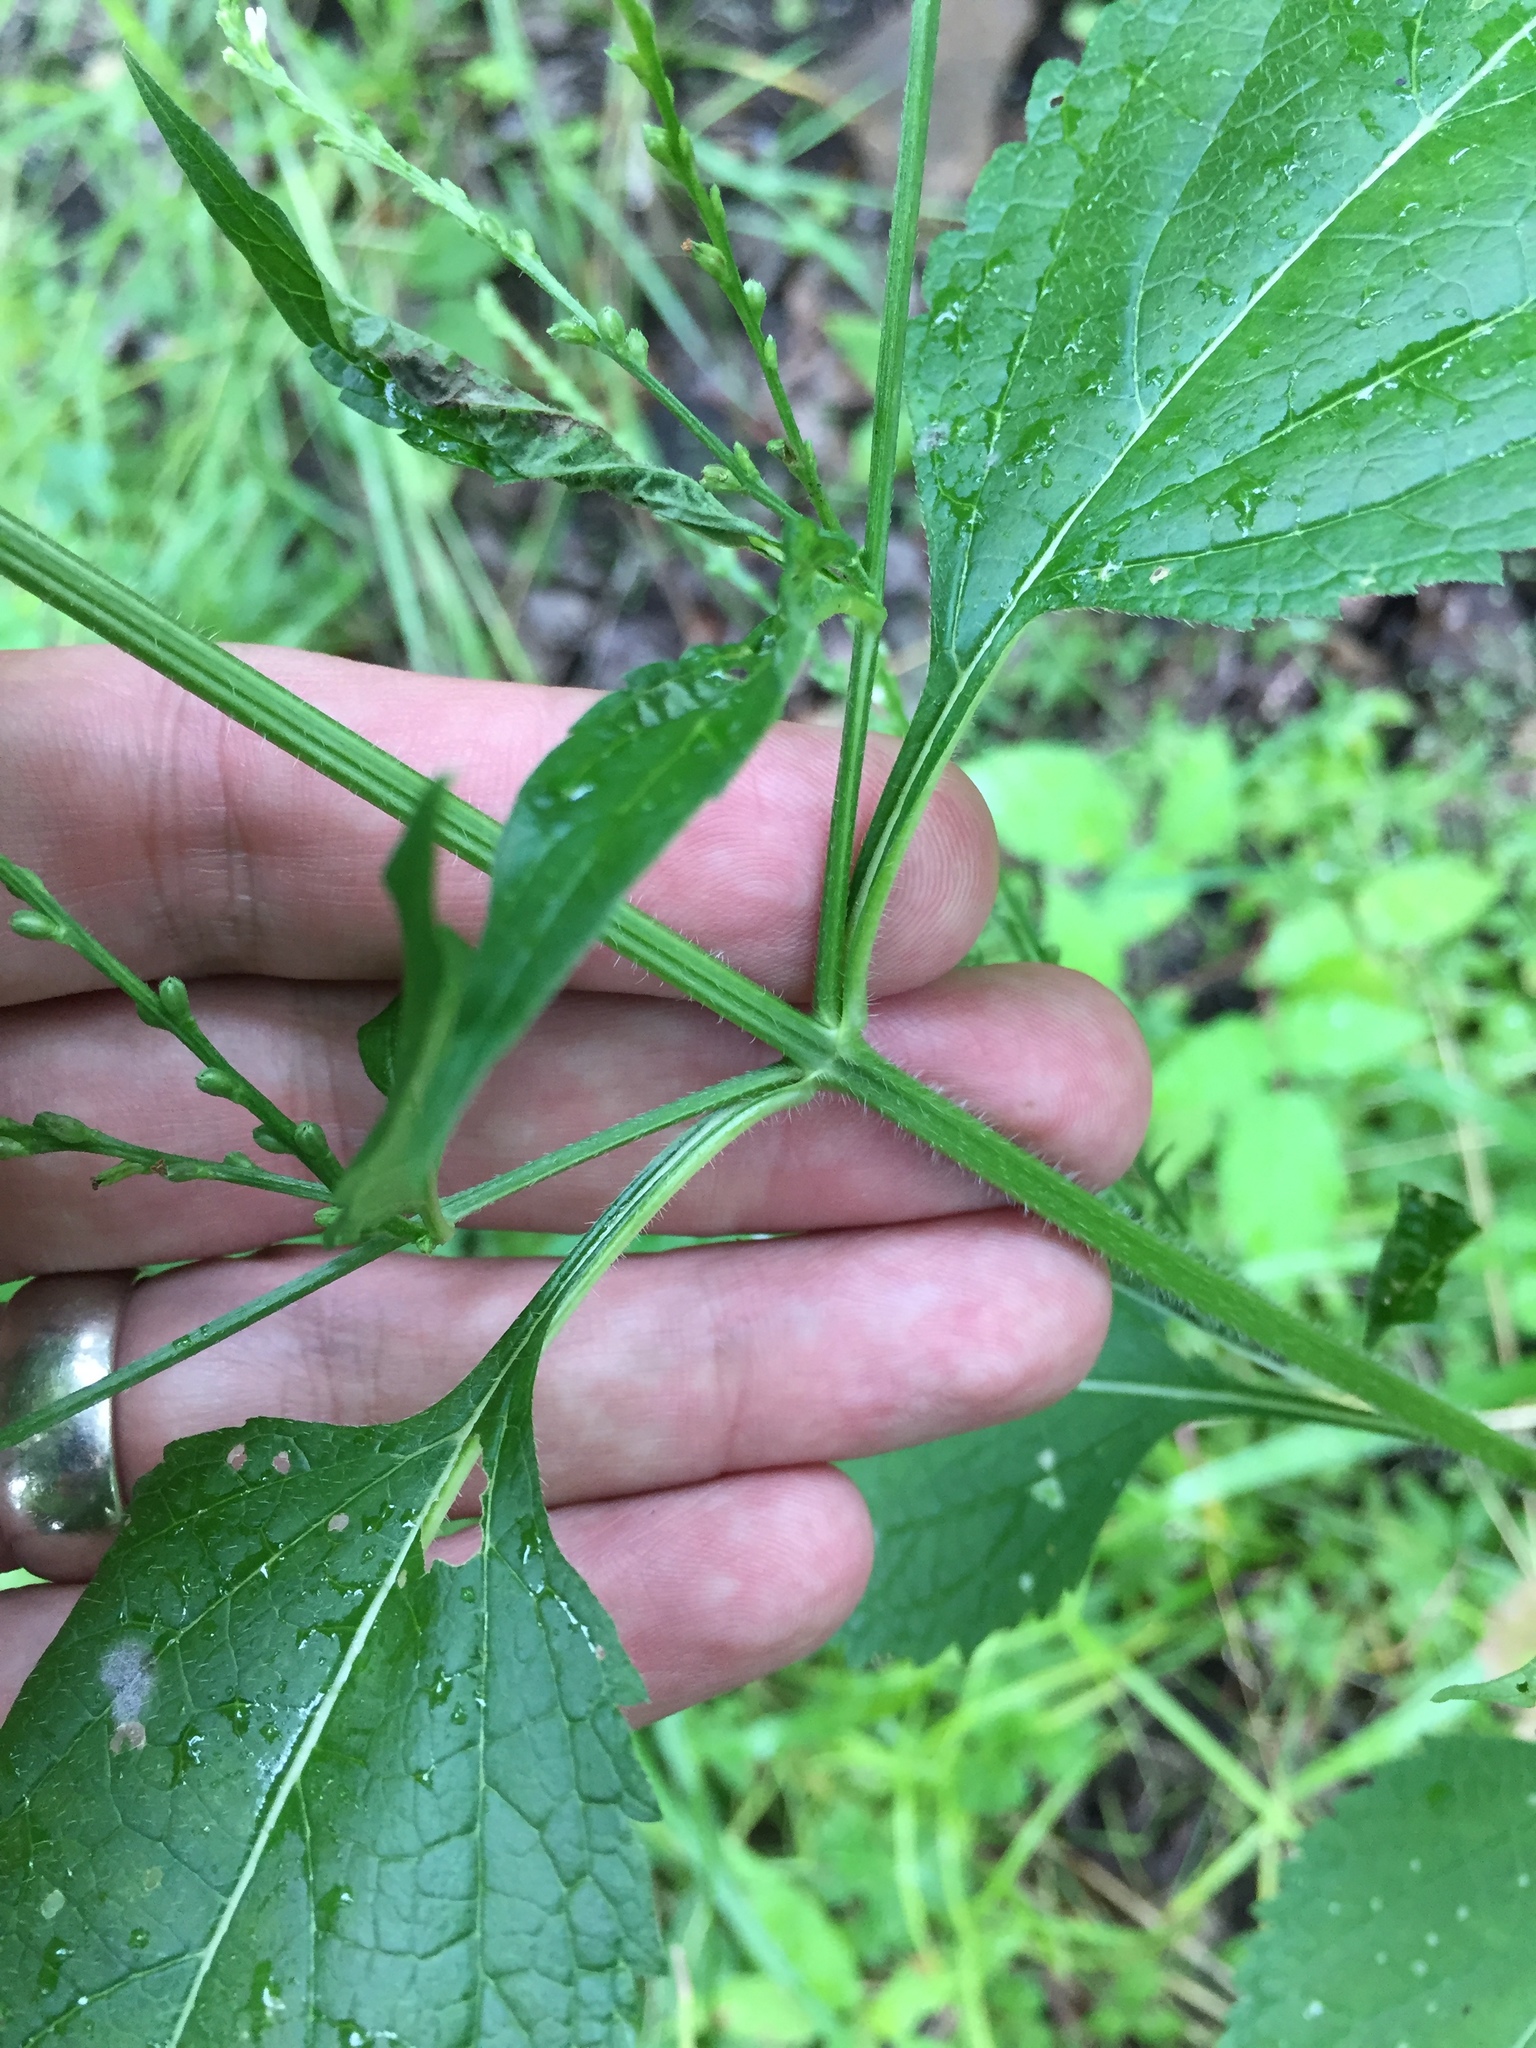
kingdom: Plantae
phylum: Tracheophyta
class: Magnoliopsida
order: Lamiales
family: Verbenaceae
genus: Verbena
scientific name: Verbena urticifolia
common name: Nettle-leaved vervain
